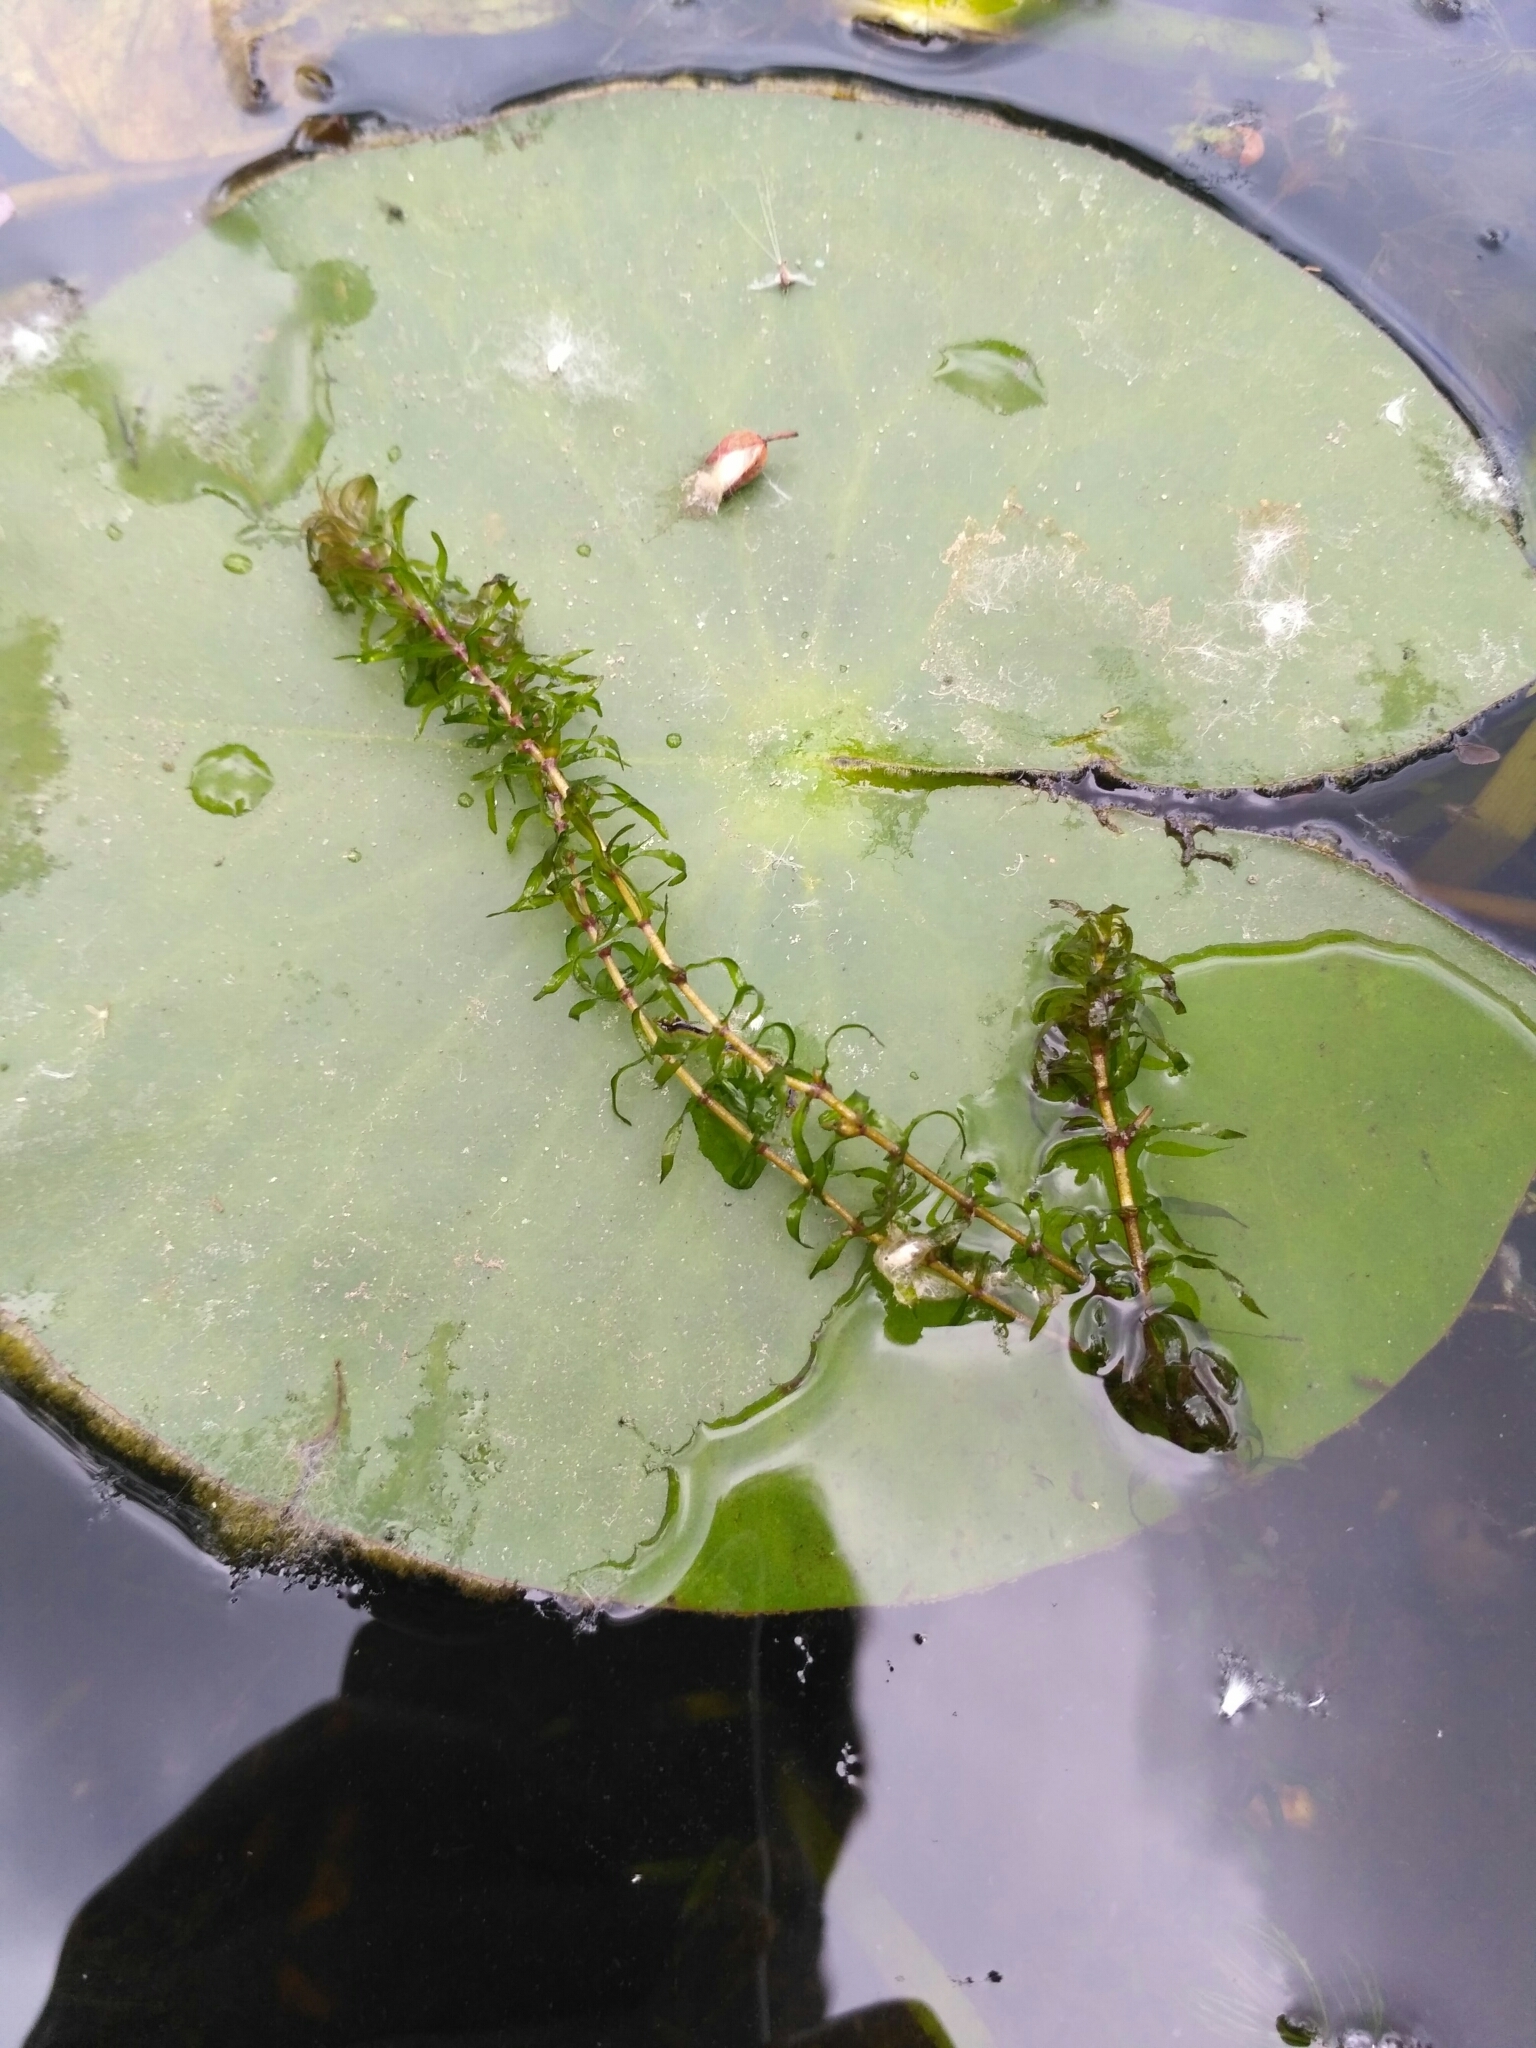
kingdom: Plantae
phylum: Tracheophyta
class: Liliopsida
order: Alismatales
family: Hydrocharitaceae
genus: Elodea
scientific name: Elodea canadensis
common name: Canadian waterweed
